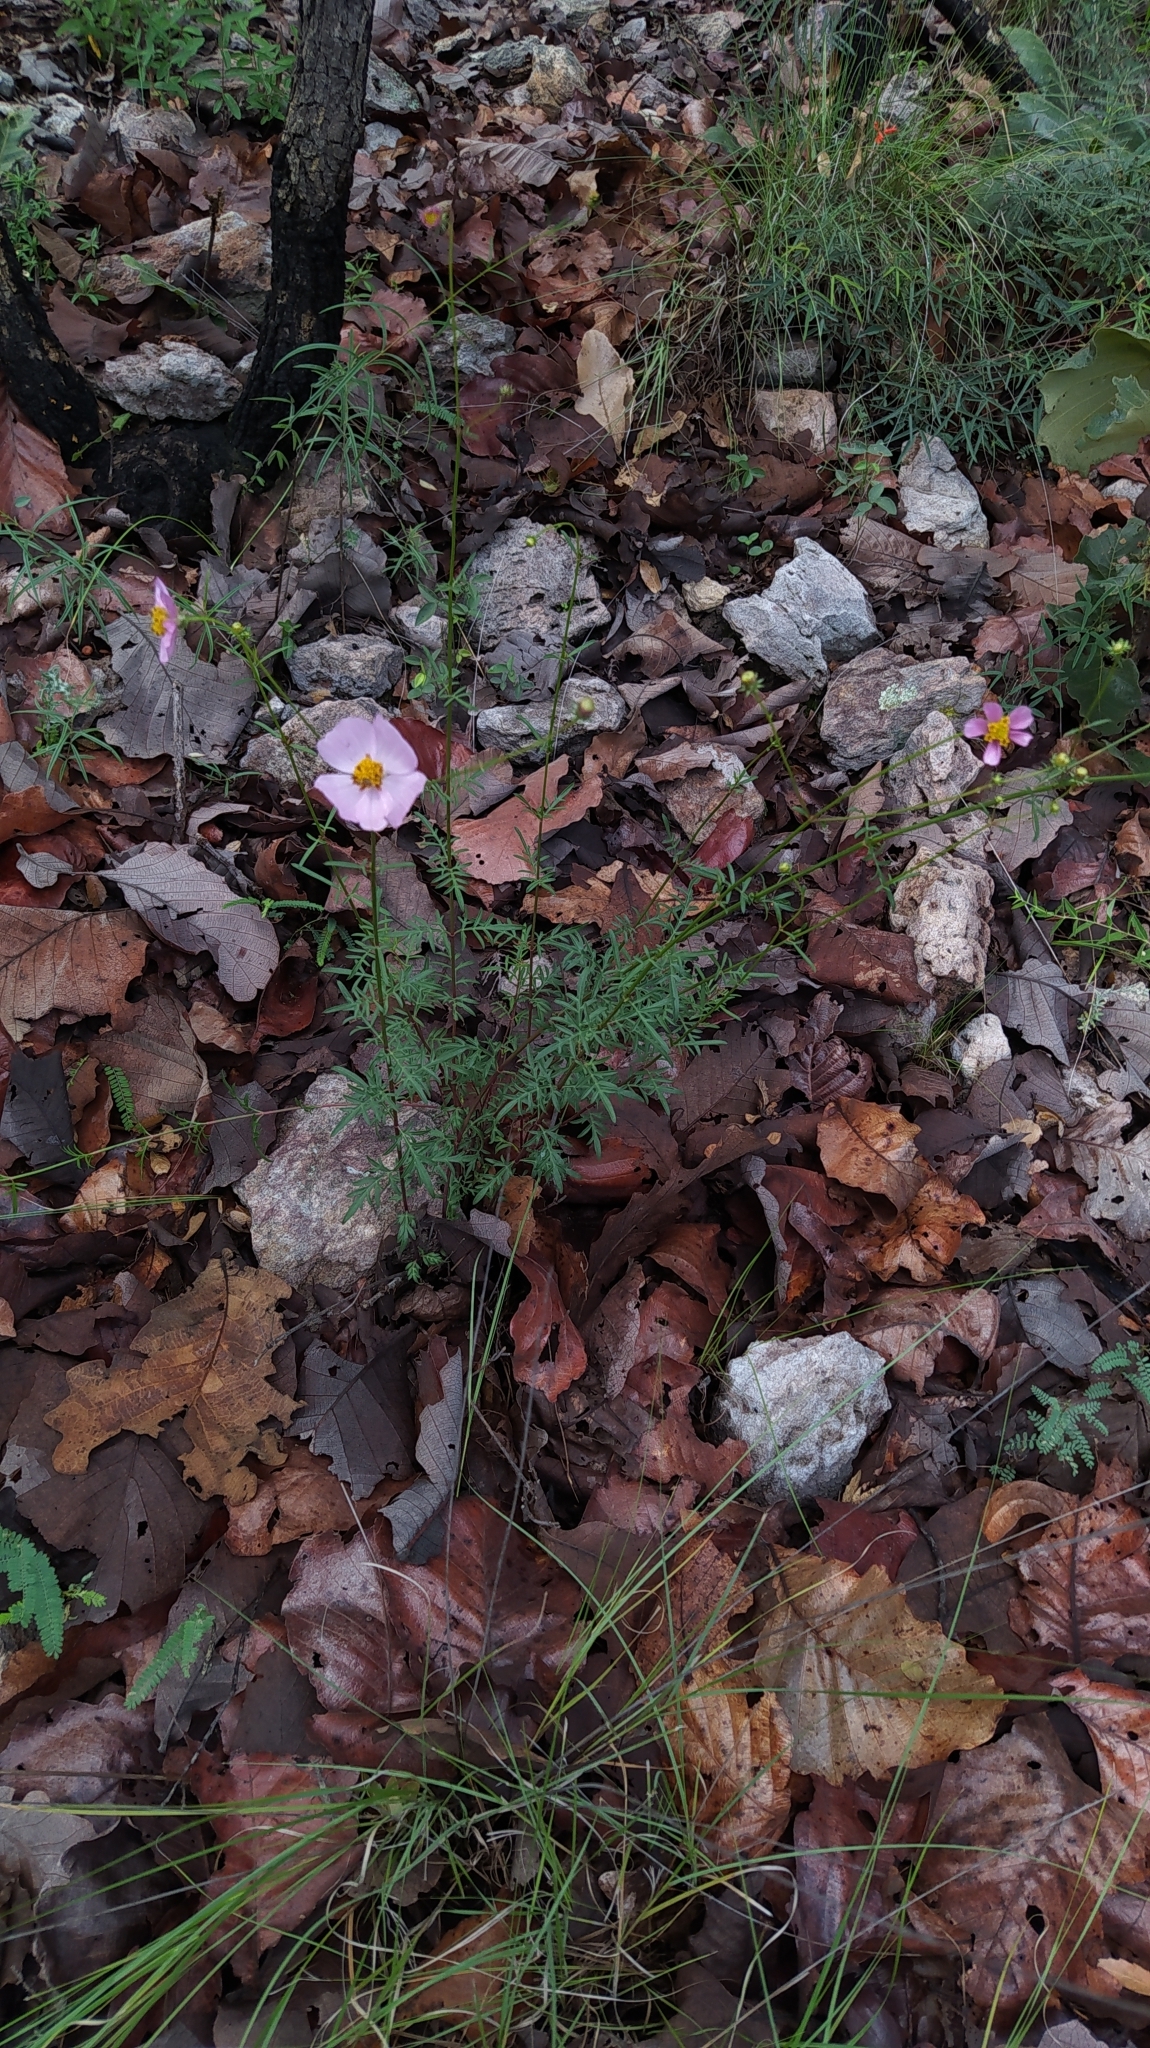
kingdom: Plantae
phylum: Tracheophyta
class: Magnoliopsida
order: Asterales
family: Asteraceae
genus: Cosmos
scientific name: Cosmos intercedens
